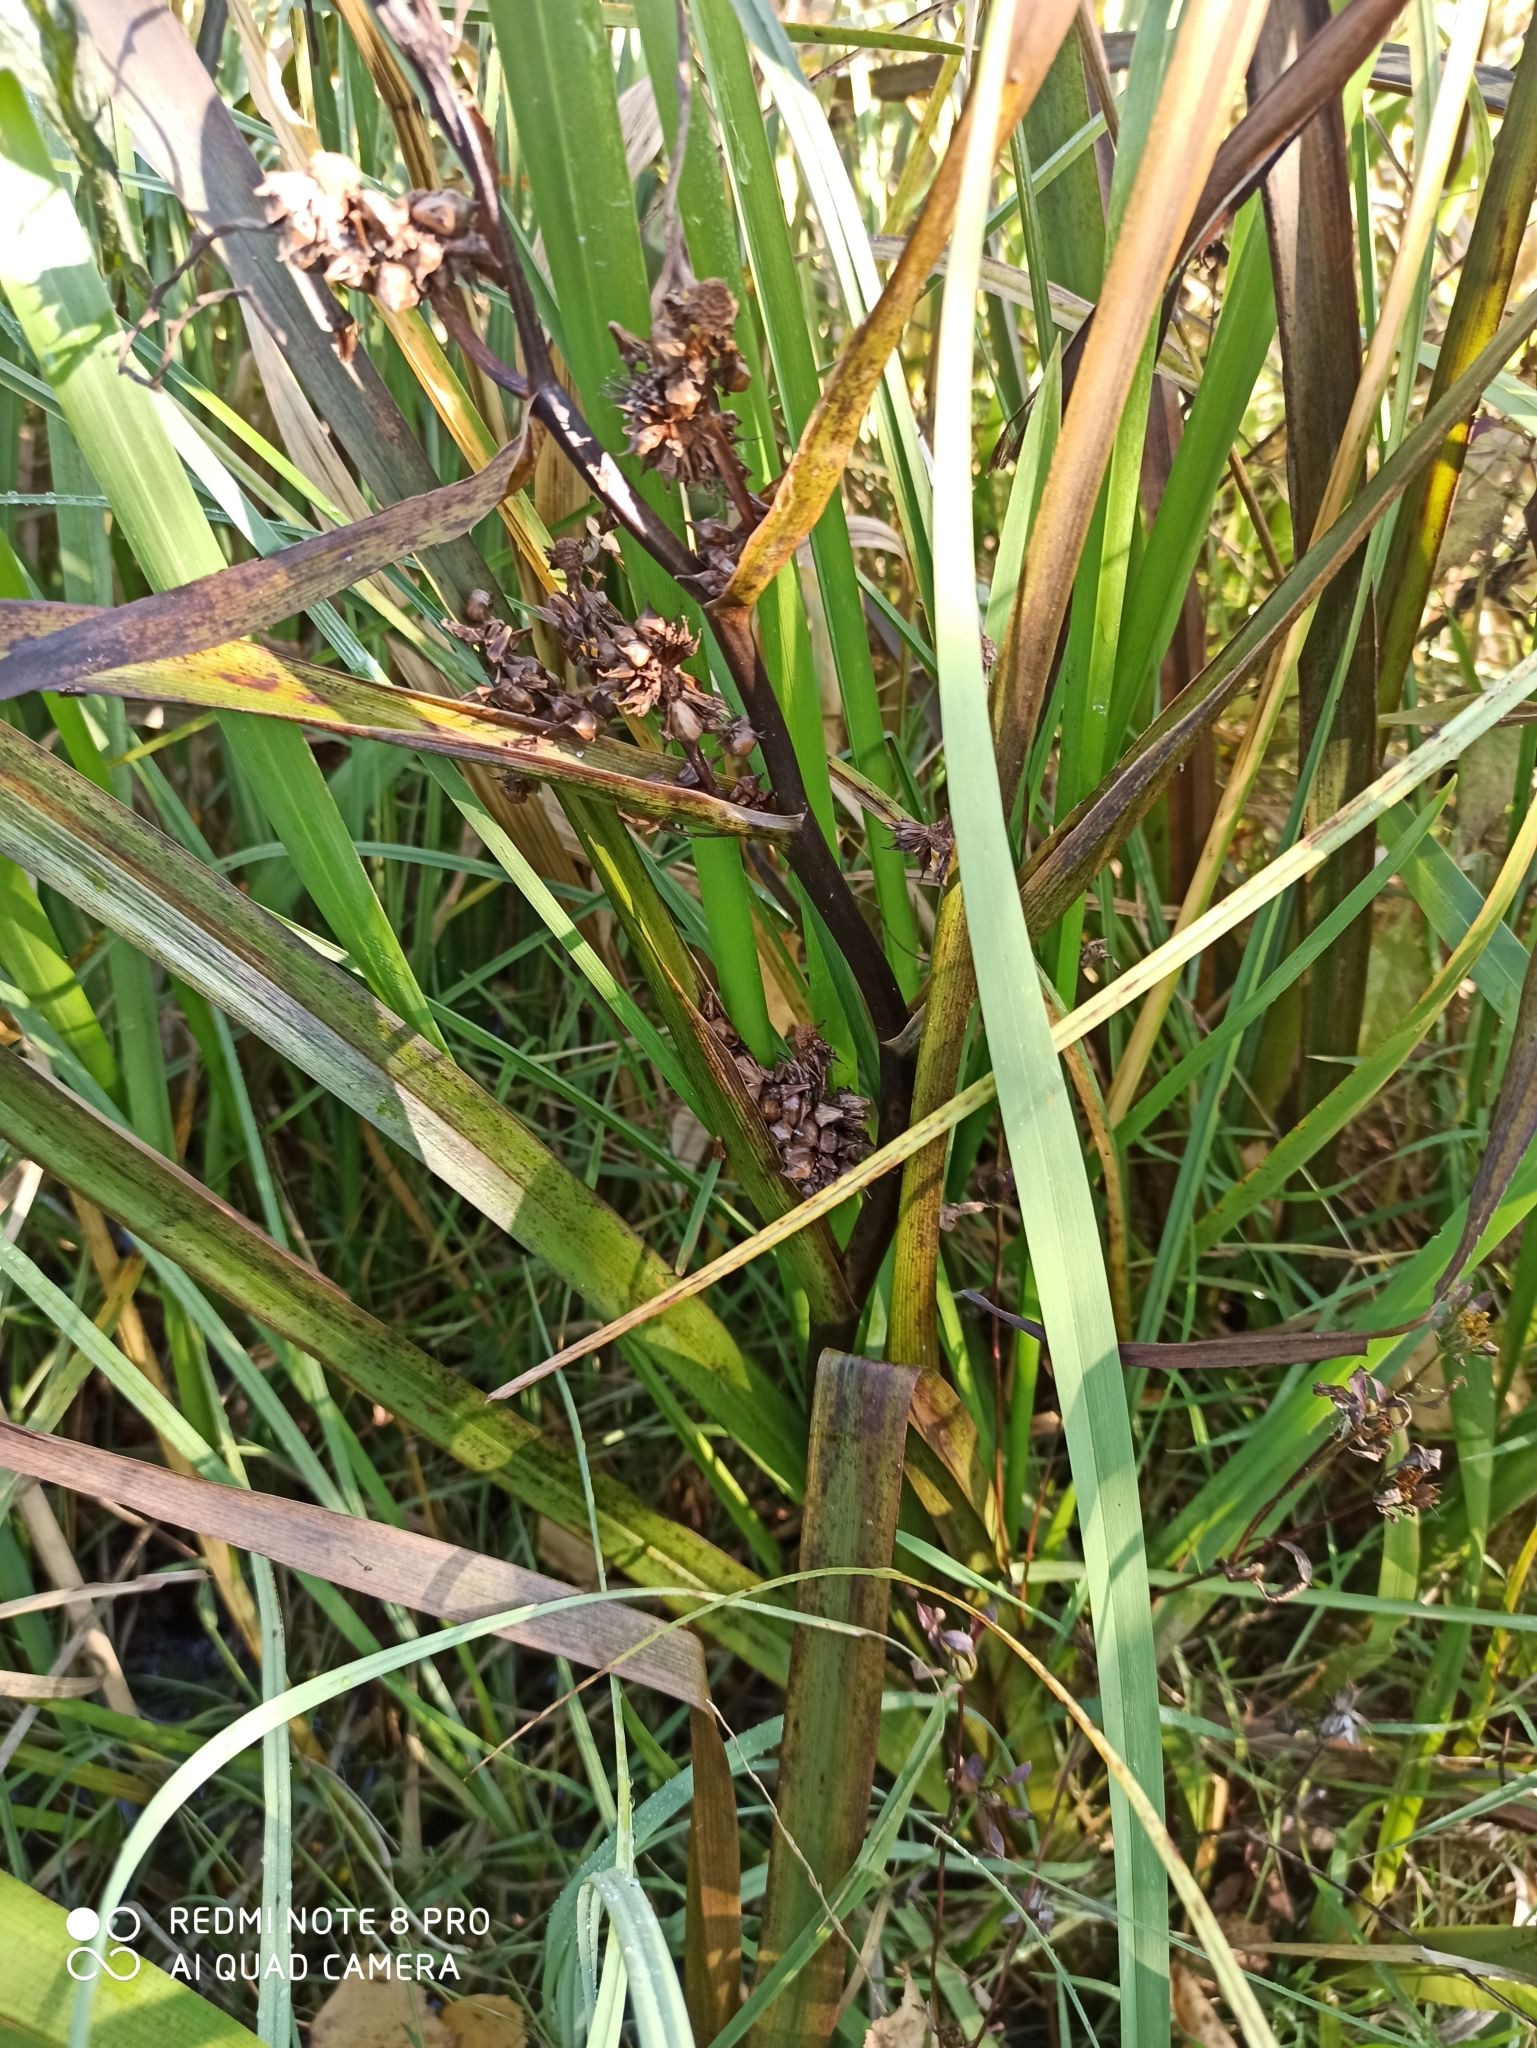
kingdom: Plantae
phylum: Tracheophyta
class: Liliopsida
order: Poales
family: Typhaceae
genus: Sparganium
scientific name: Sparganium erectum
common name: Branched bur-reed
